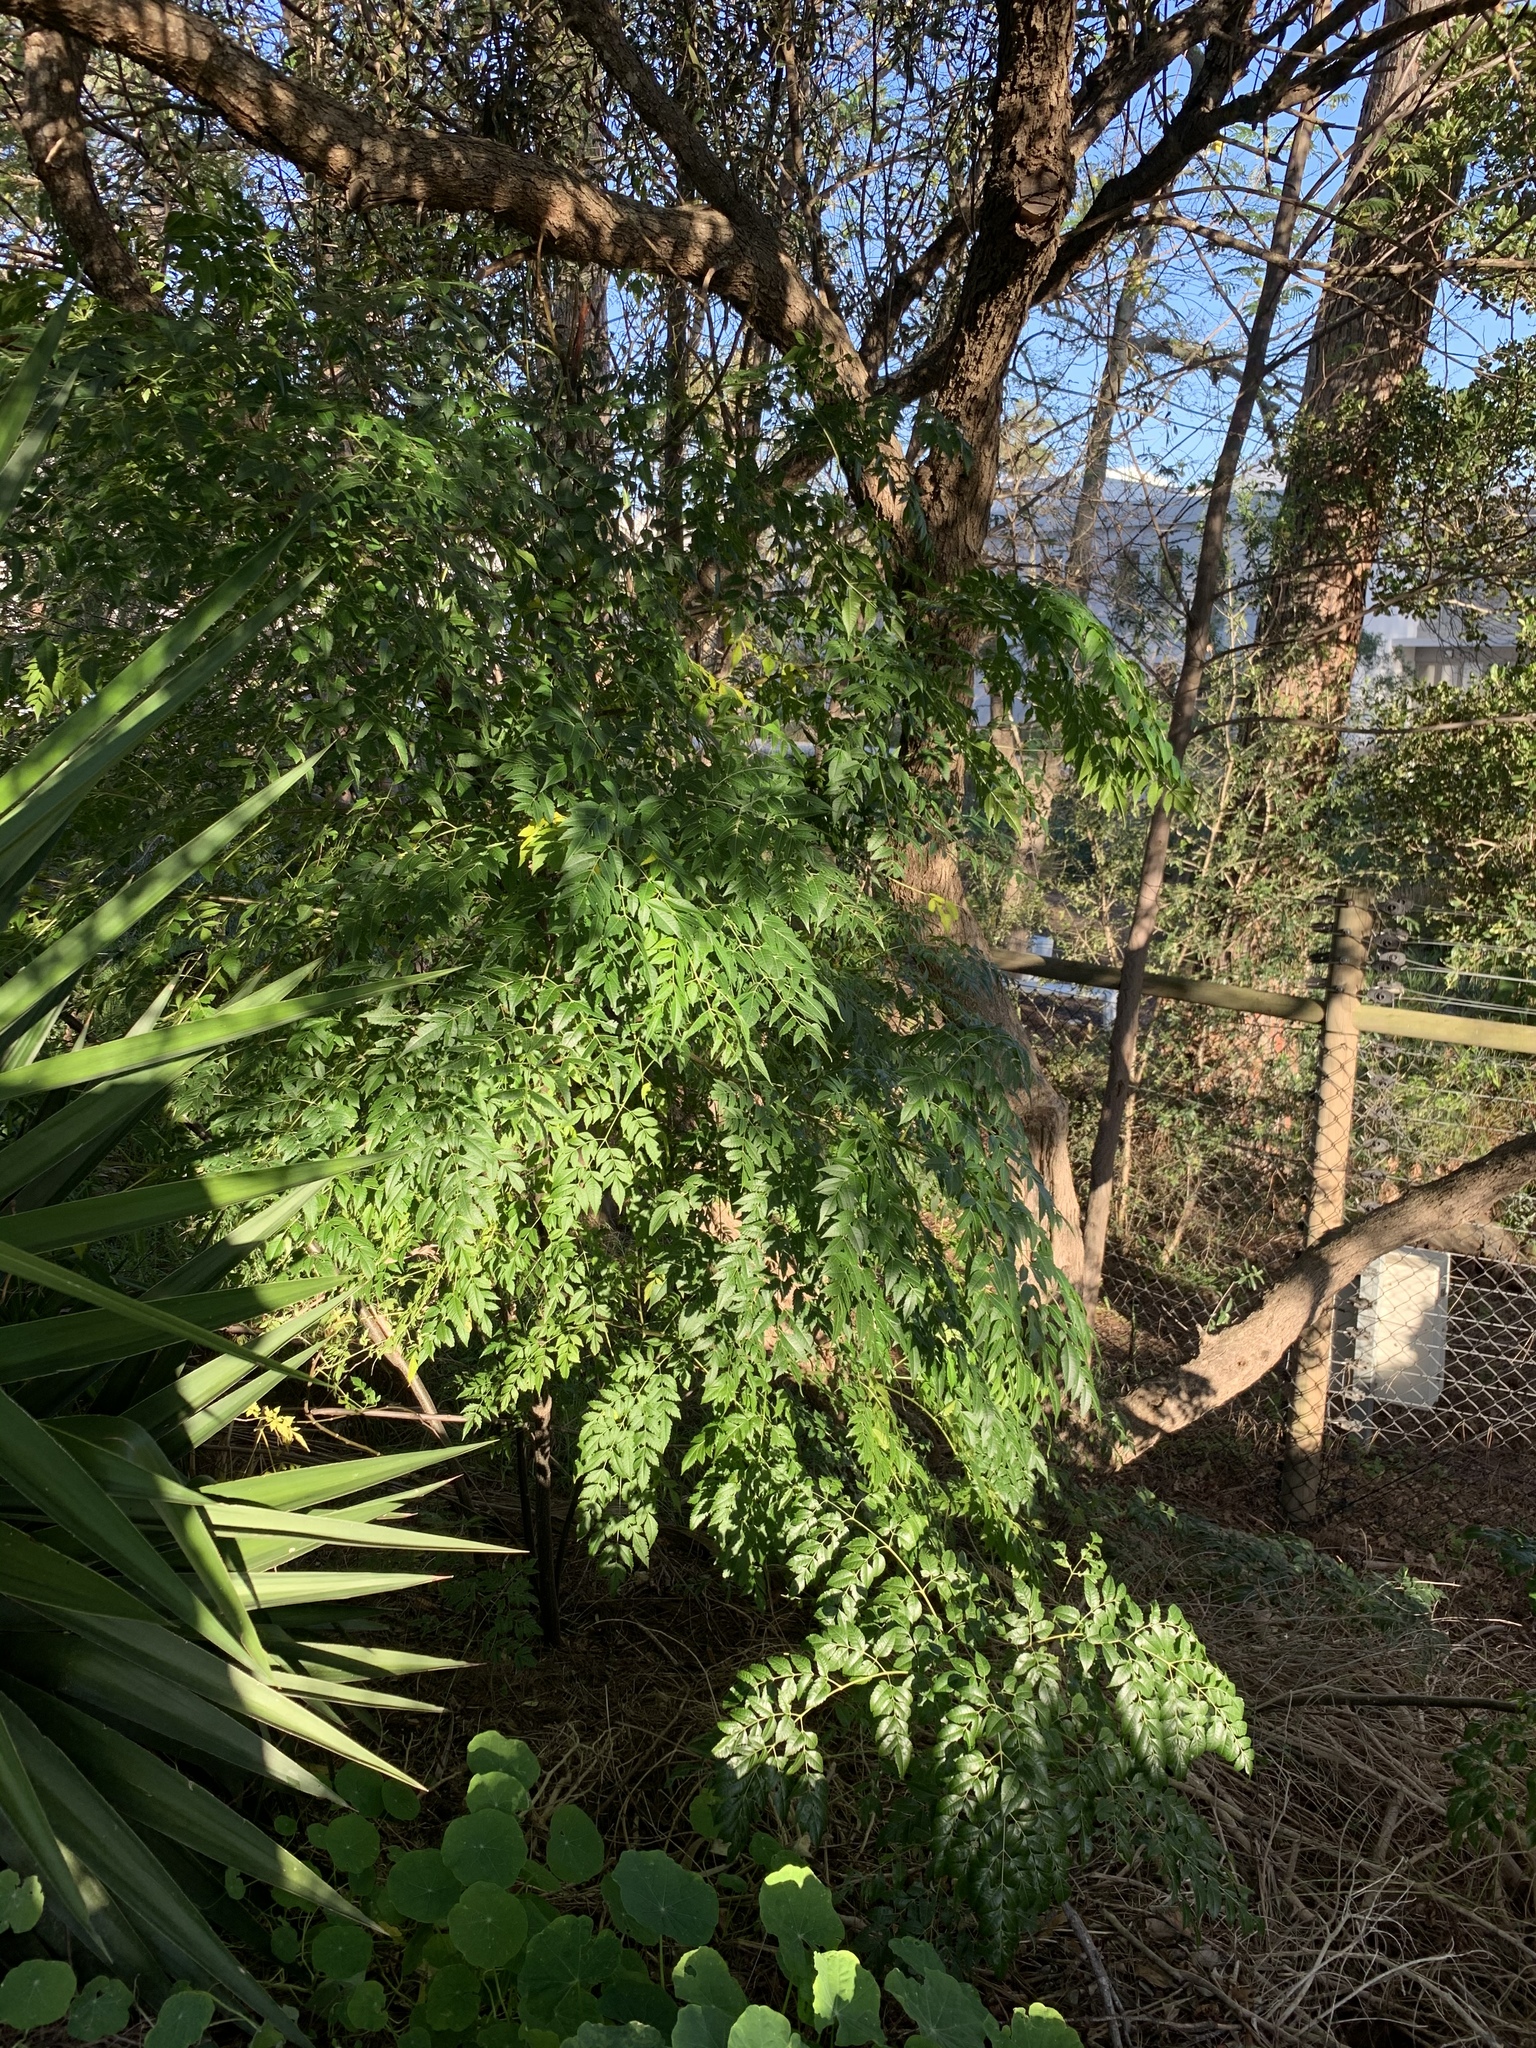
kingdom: Plantae
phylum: Tracheophyta
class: Magnoliopsida
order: Sapindales
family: Meliaceae
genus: Melia
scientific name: Melia azedarach
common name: Chinaberrytree
